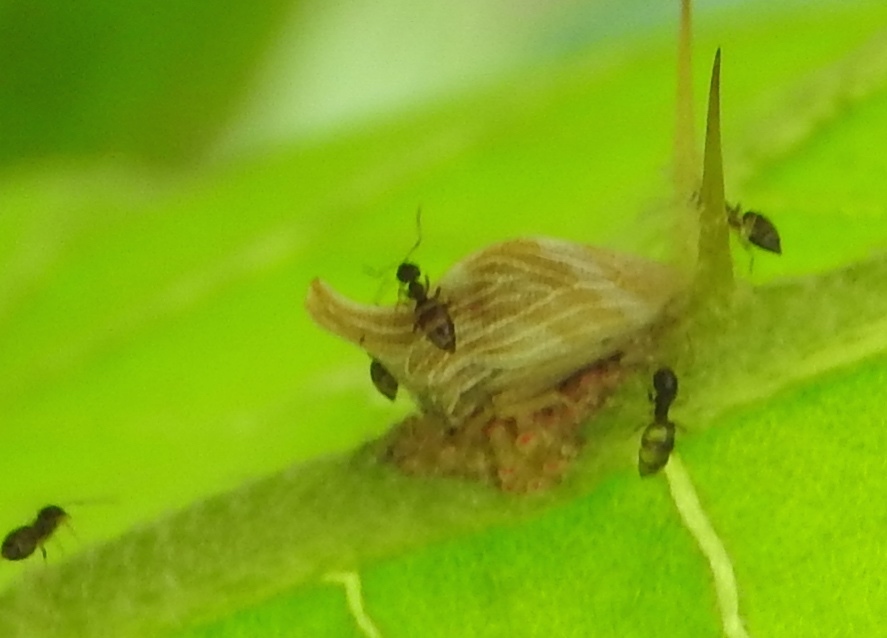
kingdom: Animalia
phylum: Arthropoda
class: Insecta
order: Hemiptera
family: Membracidae
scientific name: Membracidae
